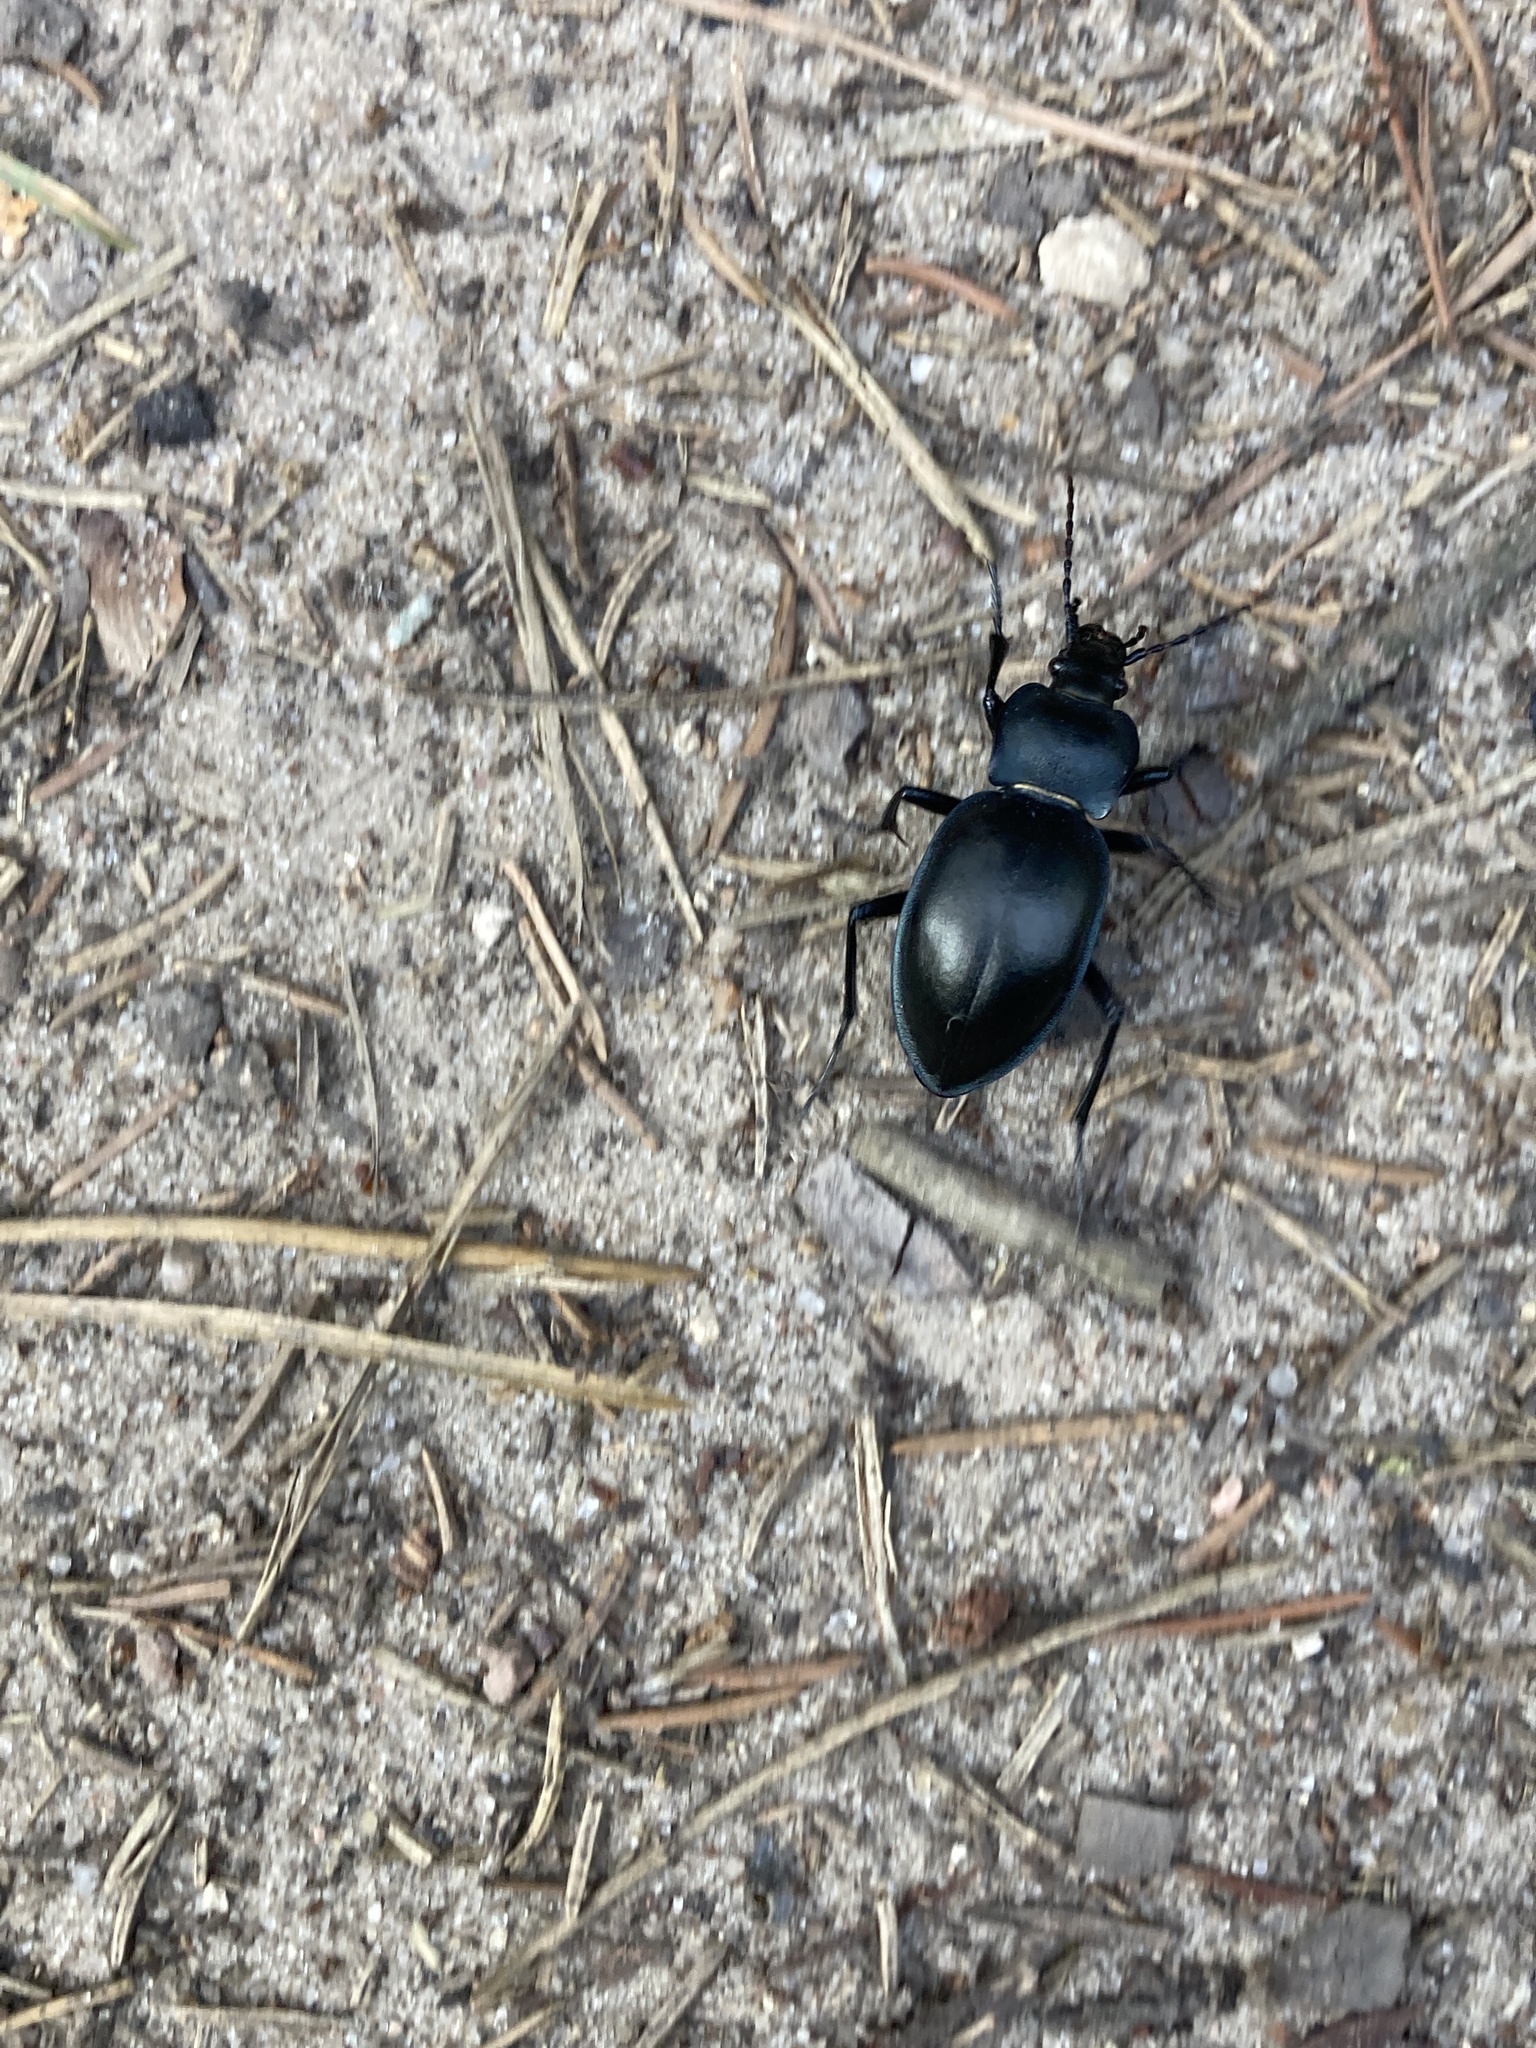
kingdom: Animalia
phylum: Arthropoda
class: Insecta
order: Coleoptera
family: Carabidae
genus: Carabus
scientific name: Carabus glabratus
